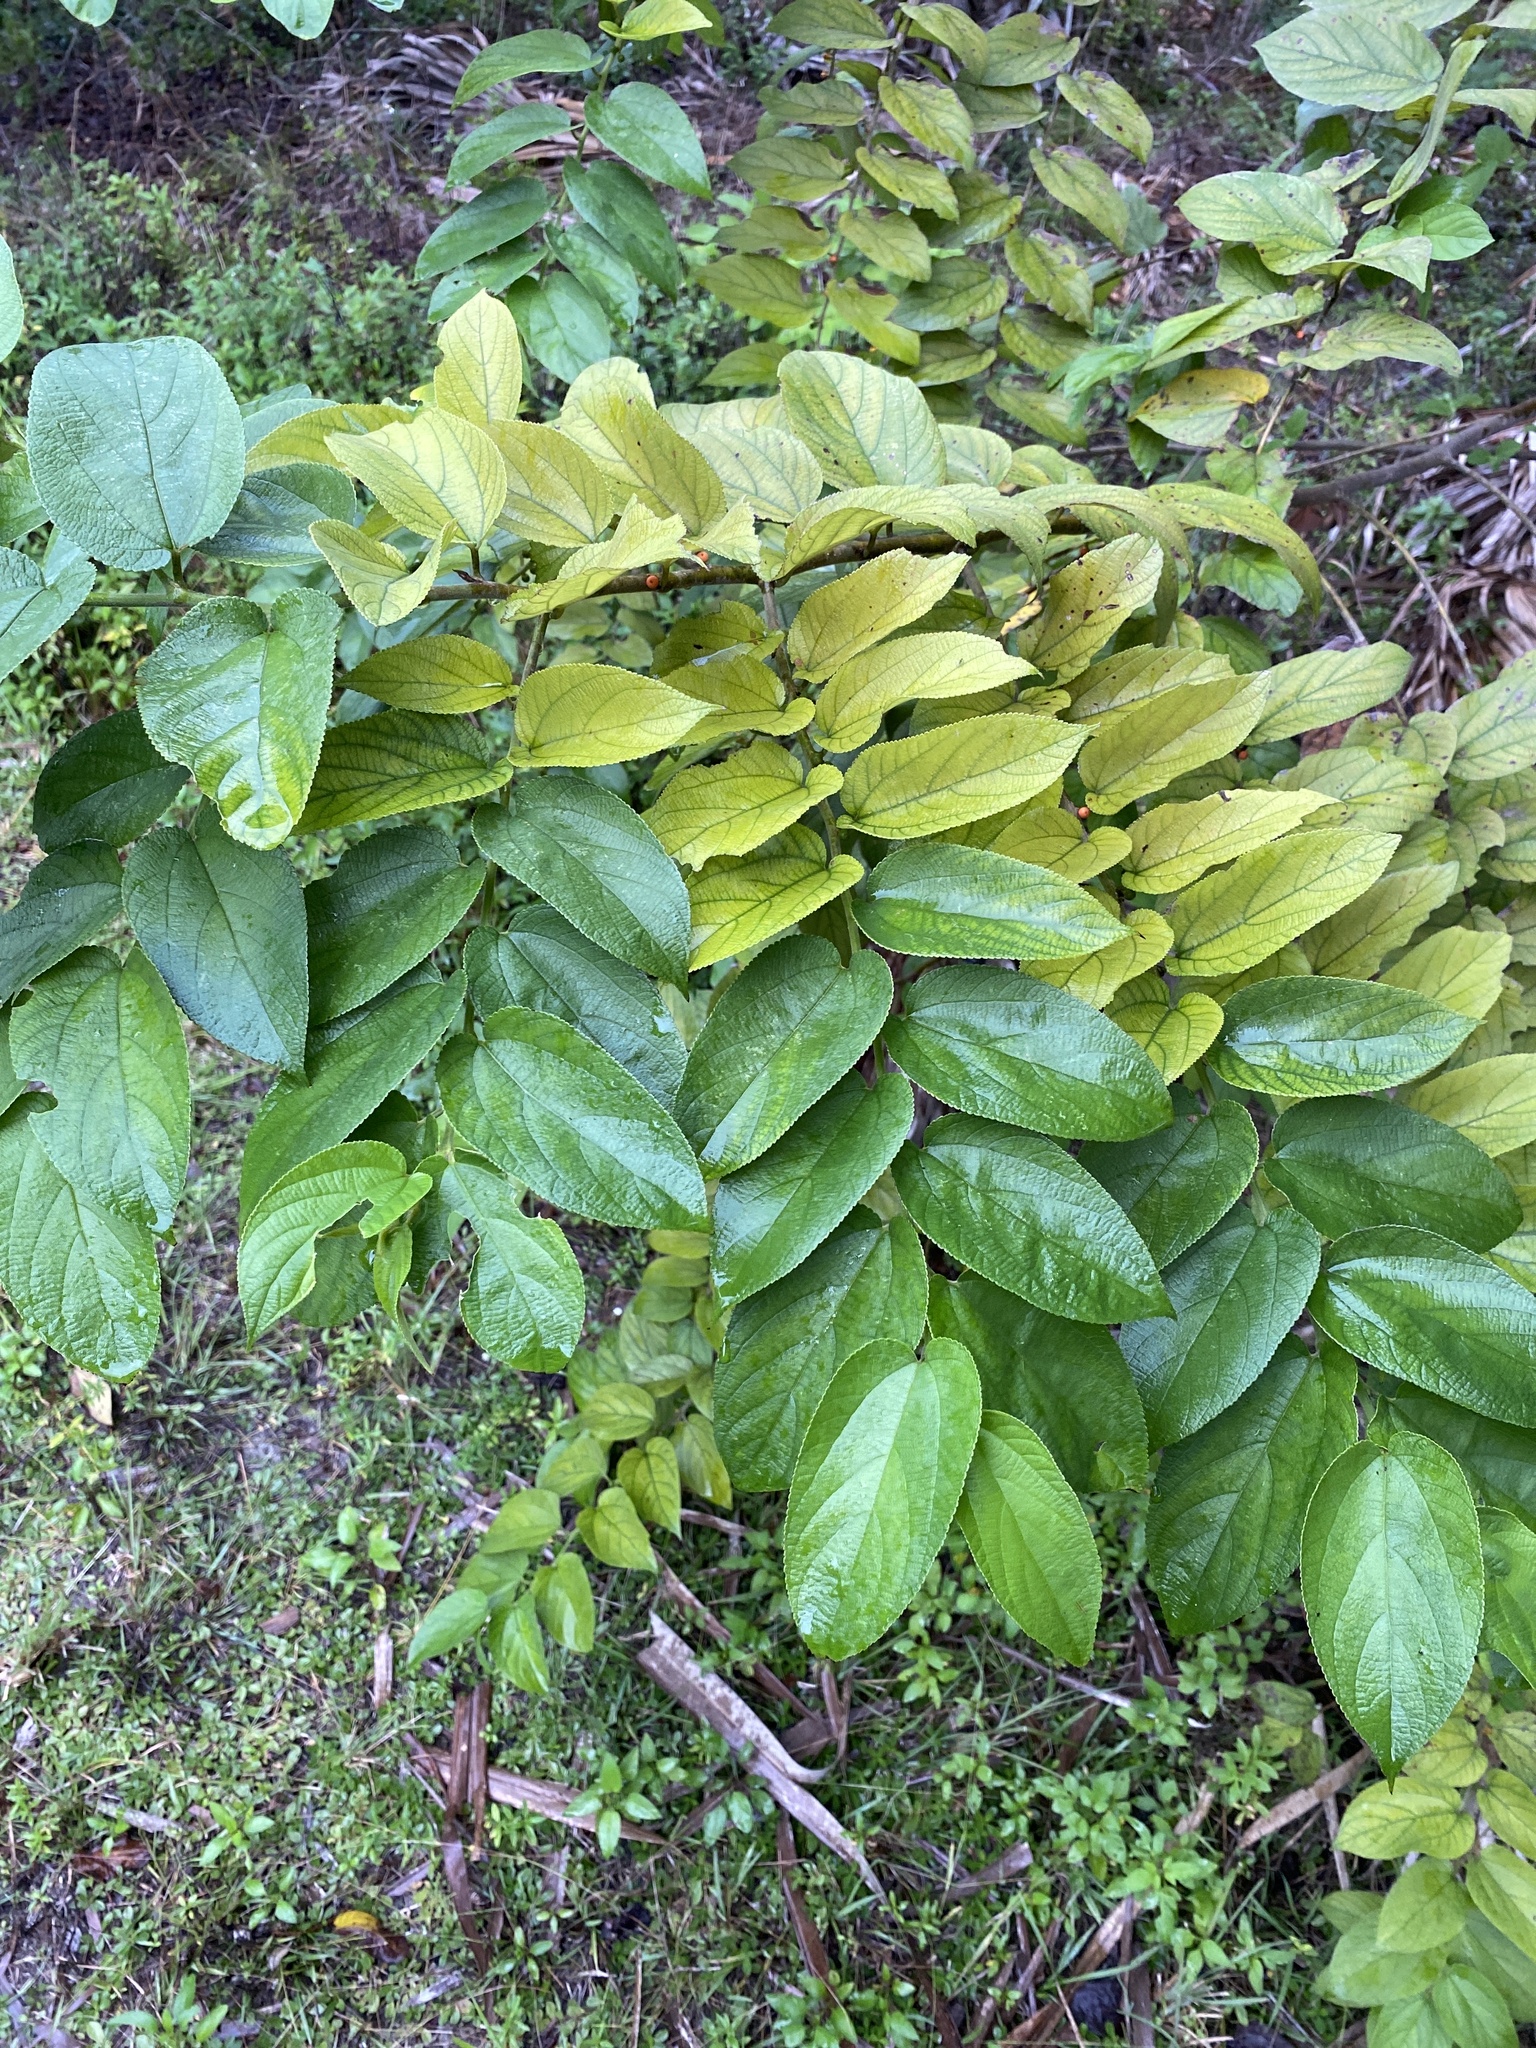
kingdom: Plantae
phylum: Tracheophyta
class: Magnoliopsida
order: Rosales
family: Cannabaceae
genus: Trema
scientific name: Trema micranthum
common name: Jamaican nettletree
